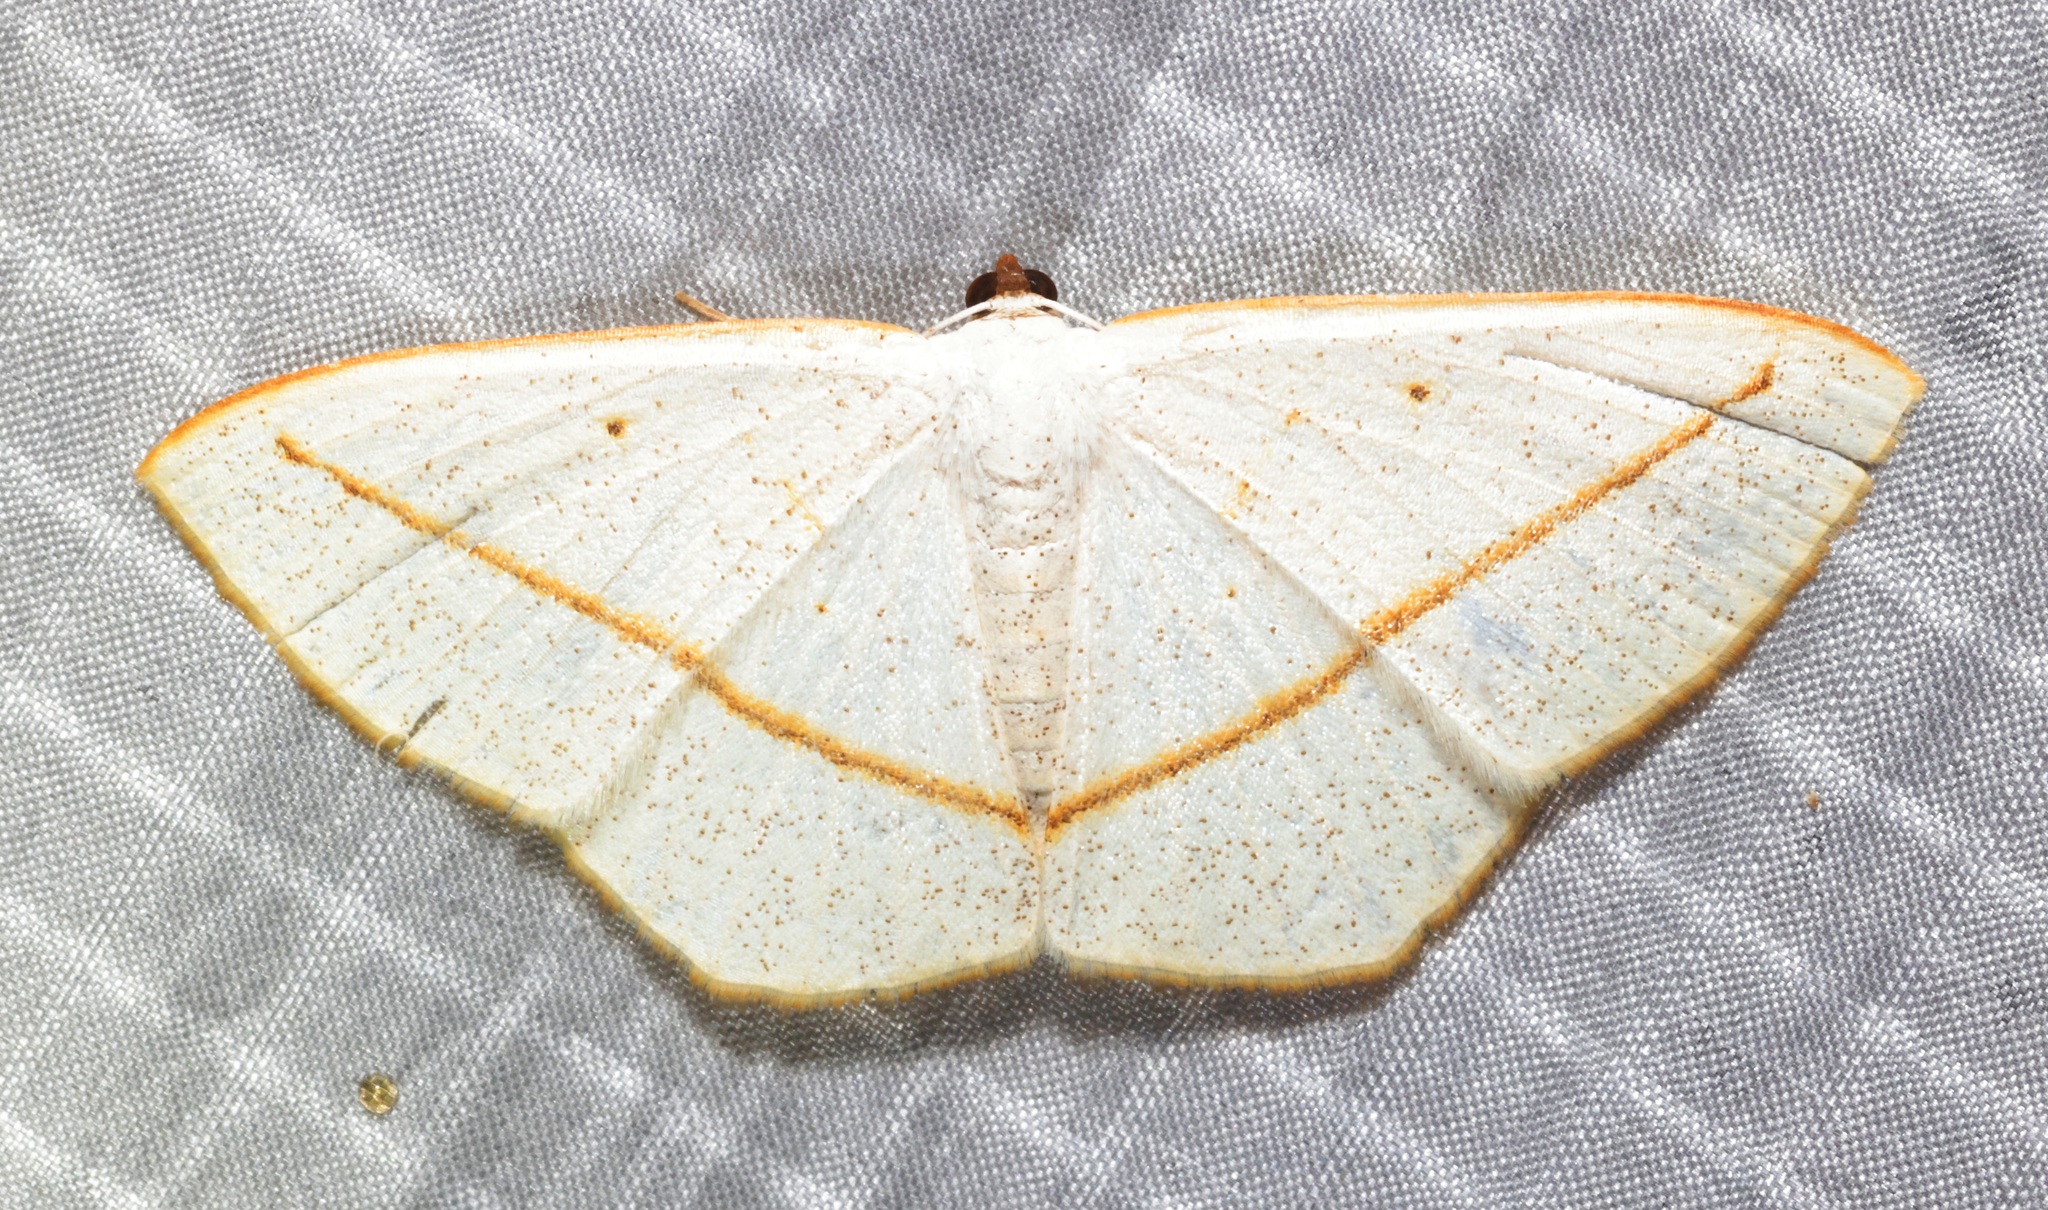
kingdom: Animalia
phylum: Arthropoda
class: Insecta
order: Lepidoptera
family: Geometridae
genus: Lomographa
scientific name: Lomographa inamata
